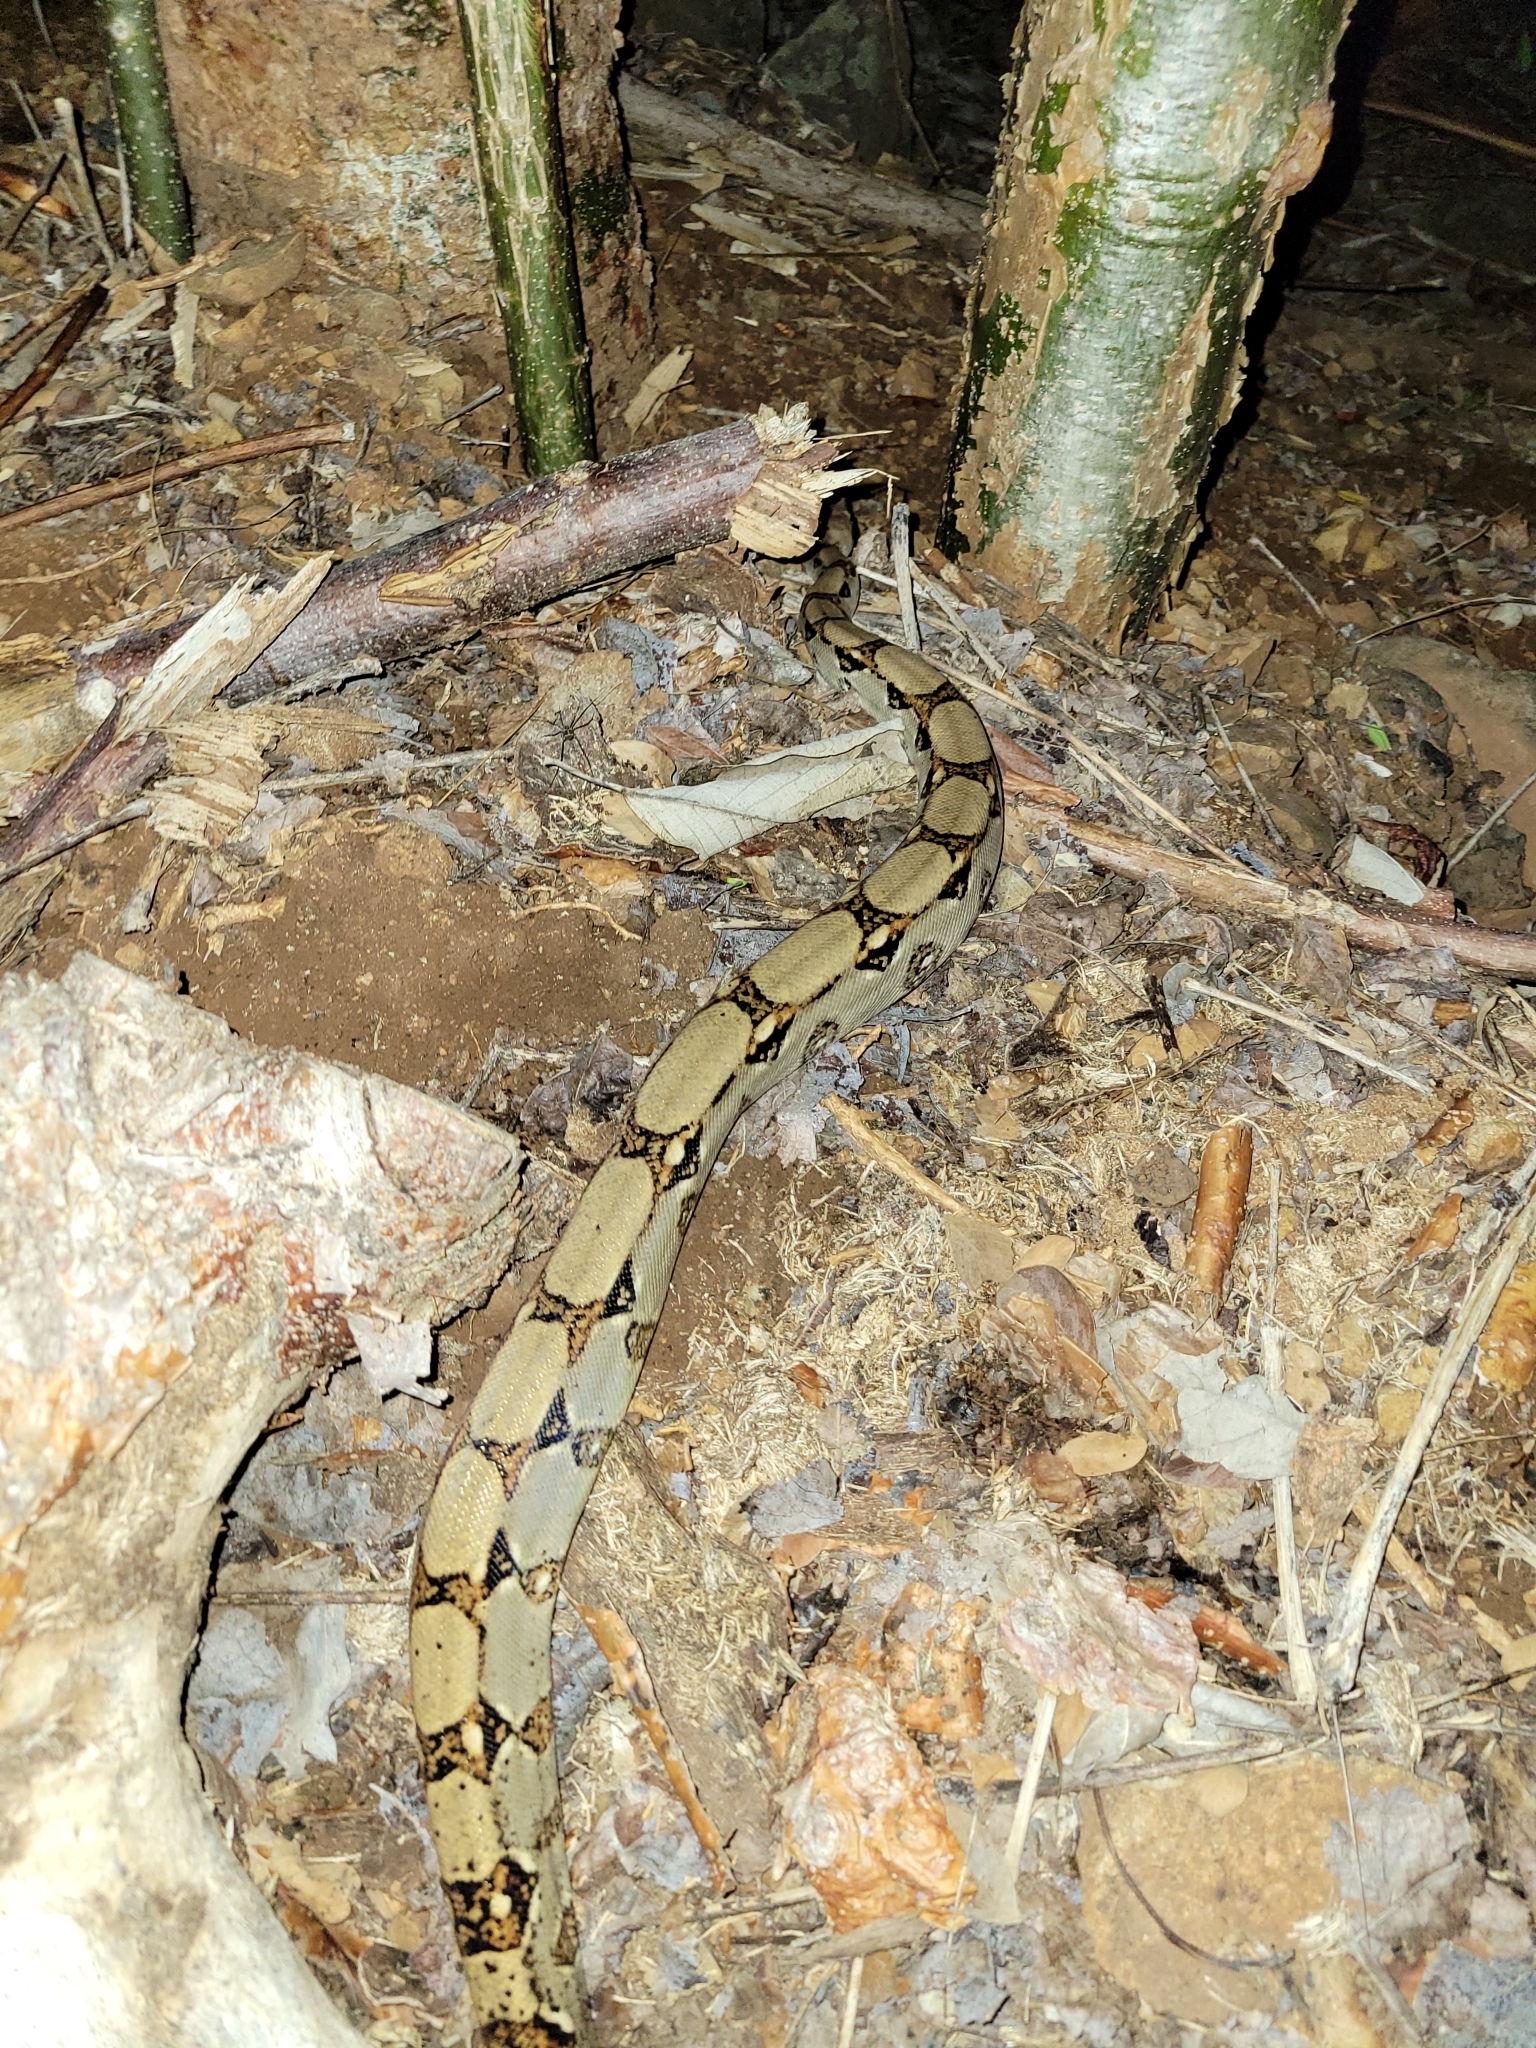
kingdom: Animalia
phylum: Chordata
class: Squamata
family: Boidae
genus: Boa
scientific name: Boa imperator
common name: Central american boa
